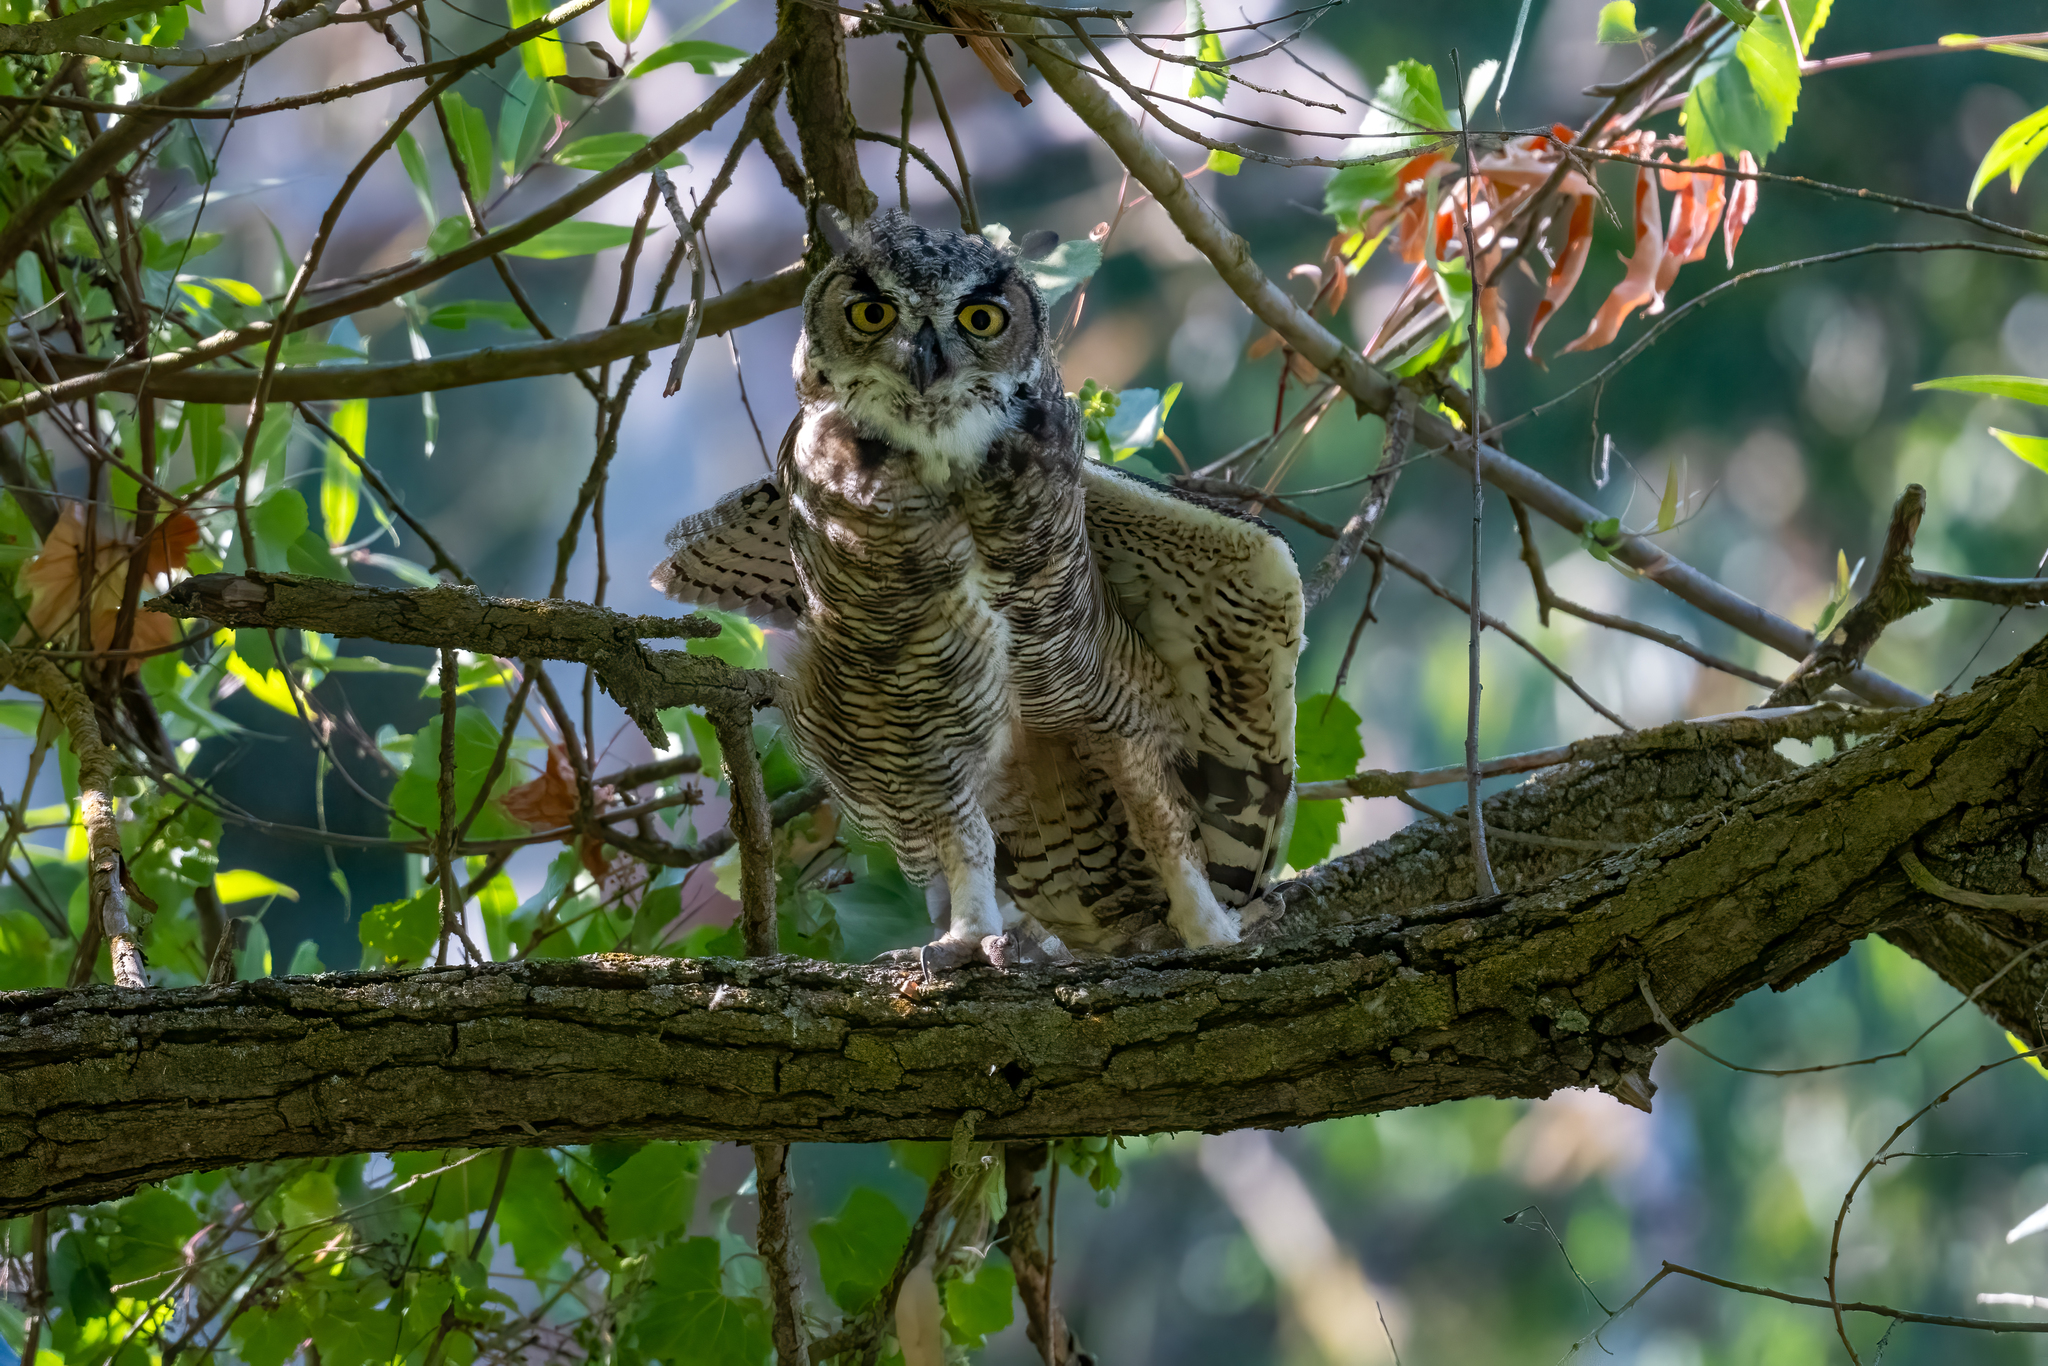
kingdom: Animalia
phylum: Chordata
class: Aves
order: Strigiformes
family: Strigidae
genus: Bubo
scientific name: Bubo virginianus
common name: Great horned owl
